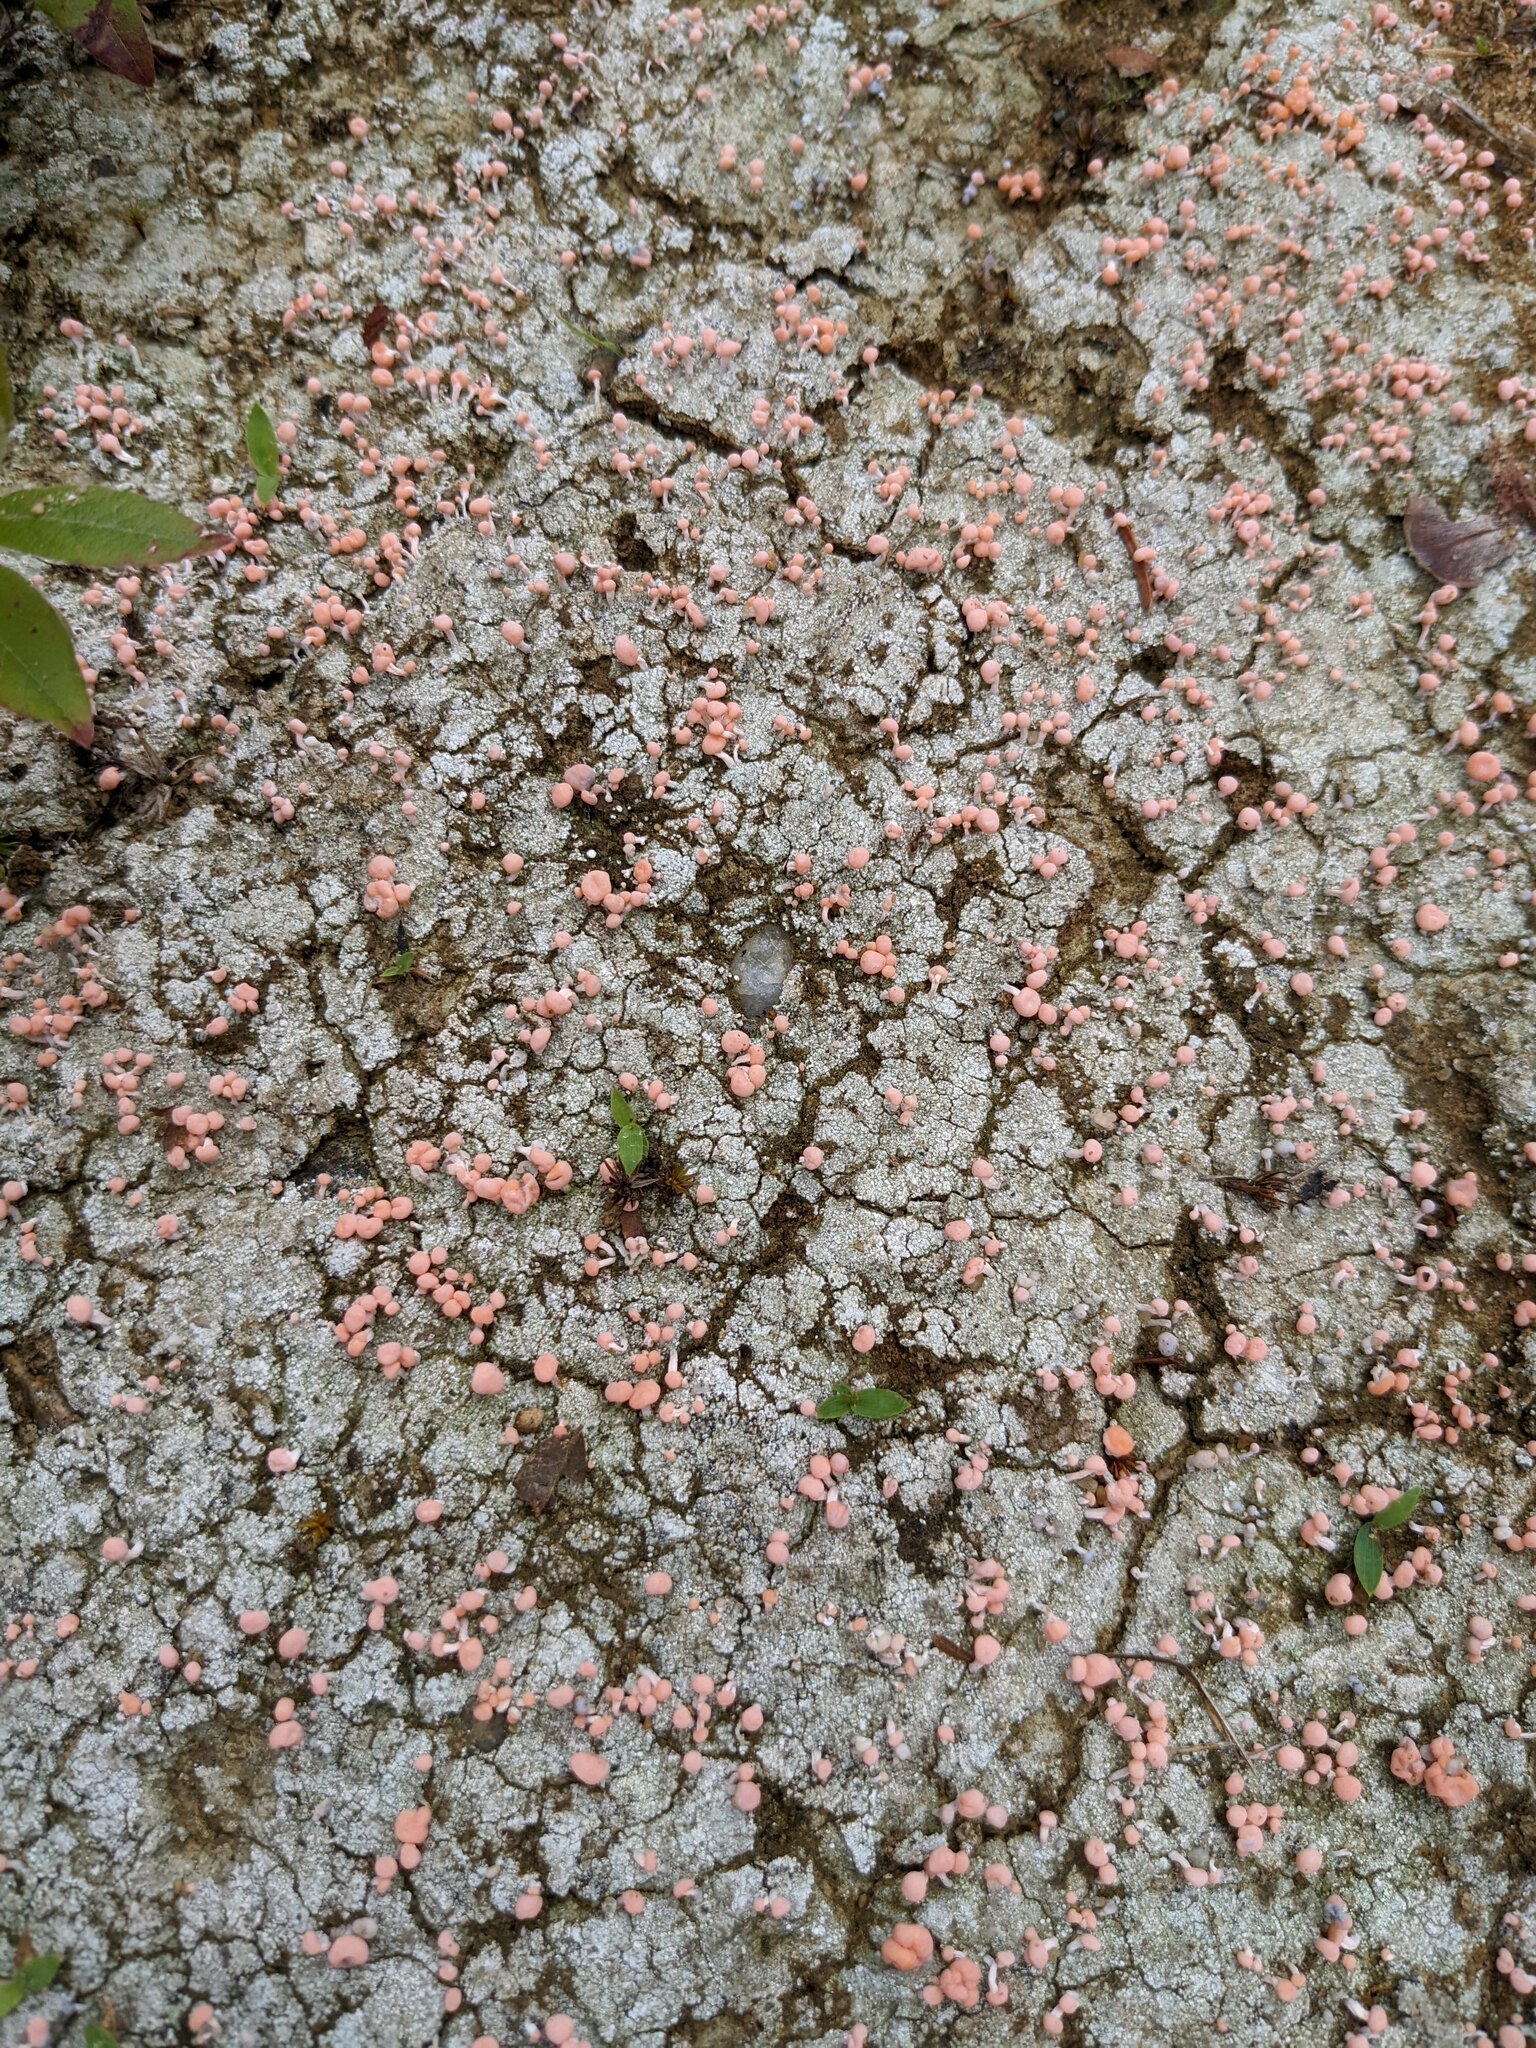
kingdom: Fungi
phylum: Ascomycota
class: Lecanoromycetes
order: Pertusariales
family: Icmadophilaceae
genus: Dibaeis
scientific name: Dibaeis baeomyces
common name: Pink earth lichen
